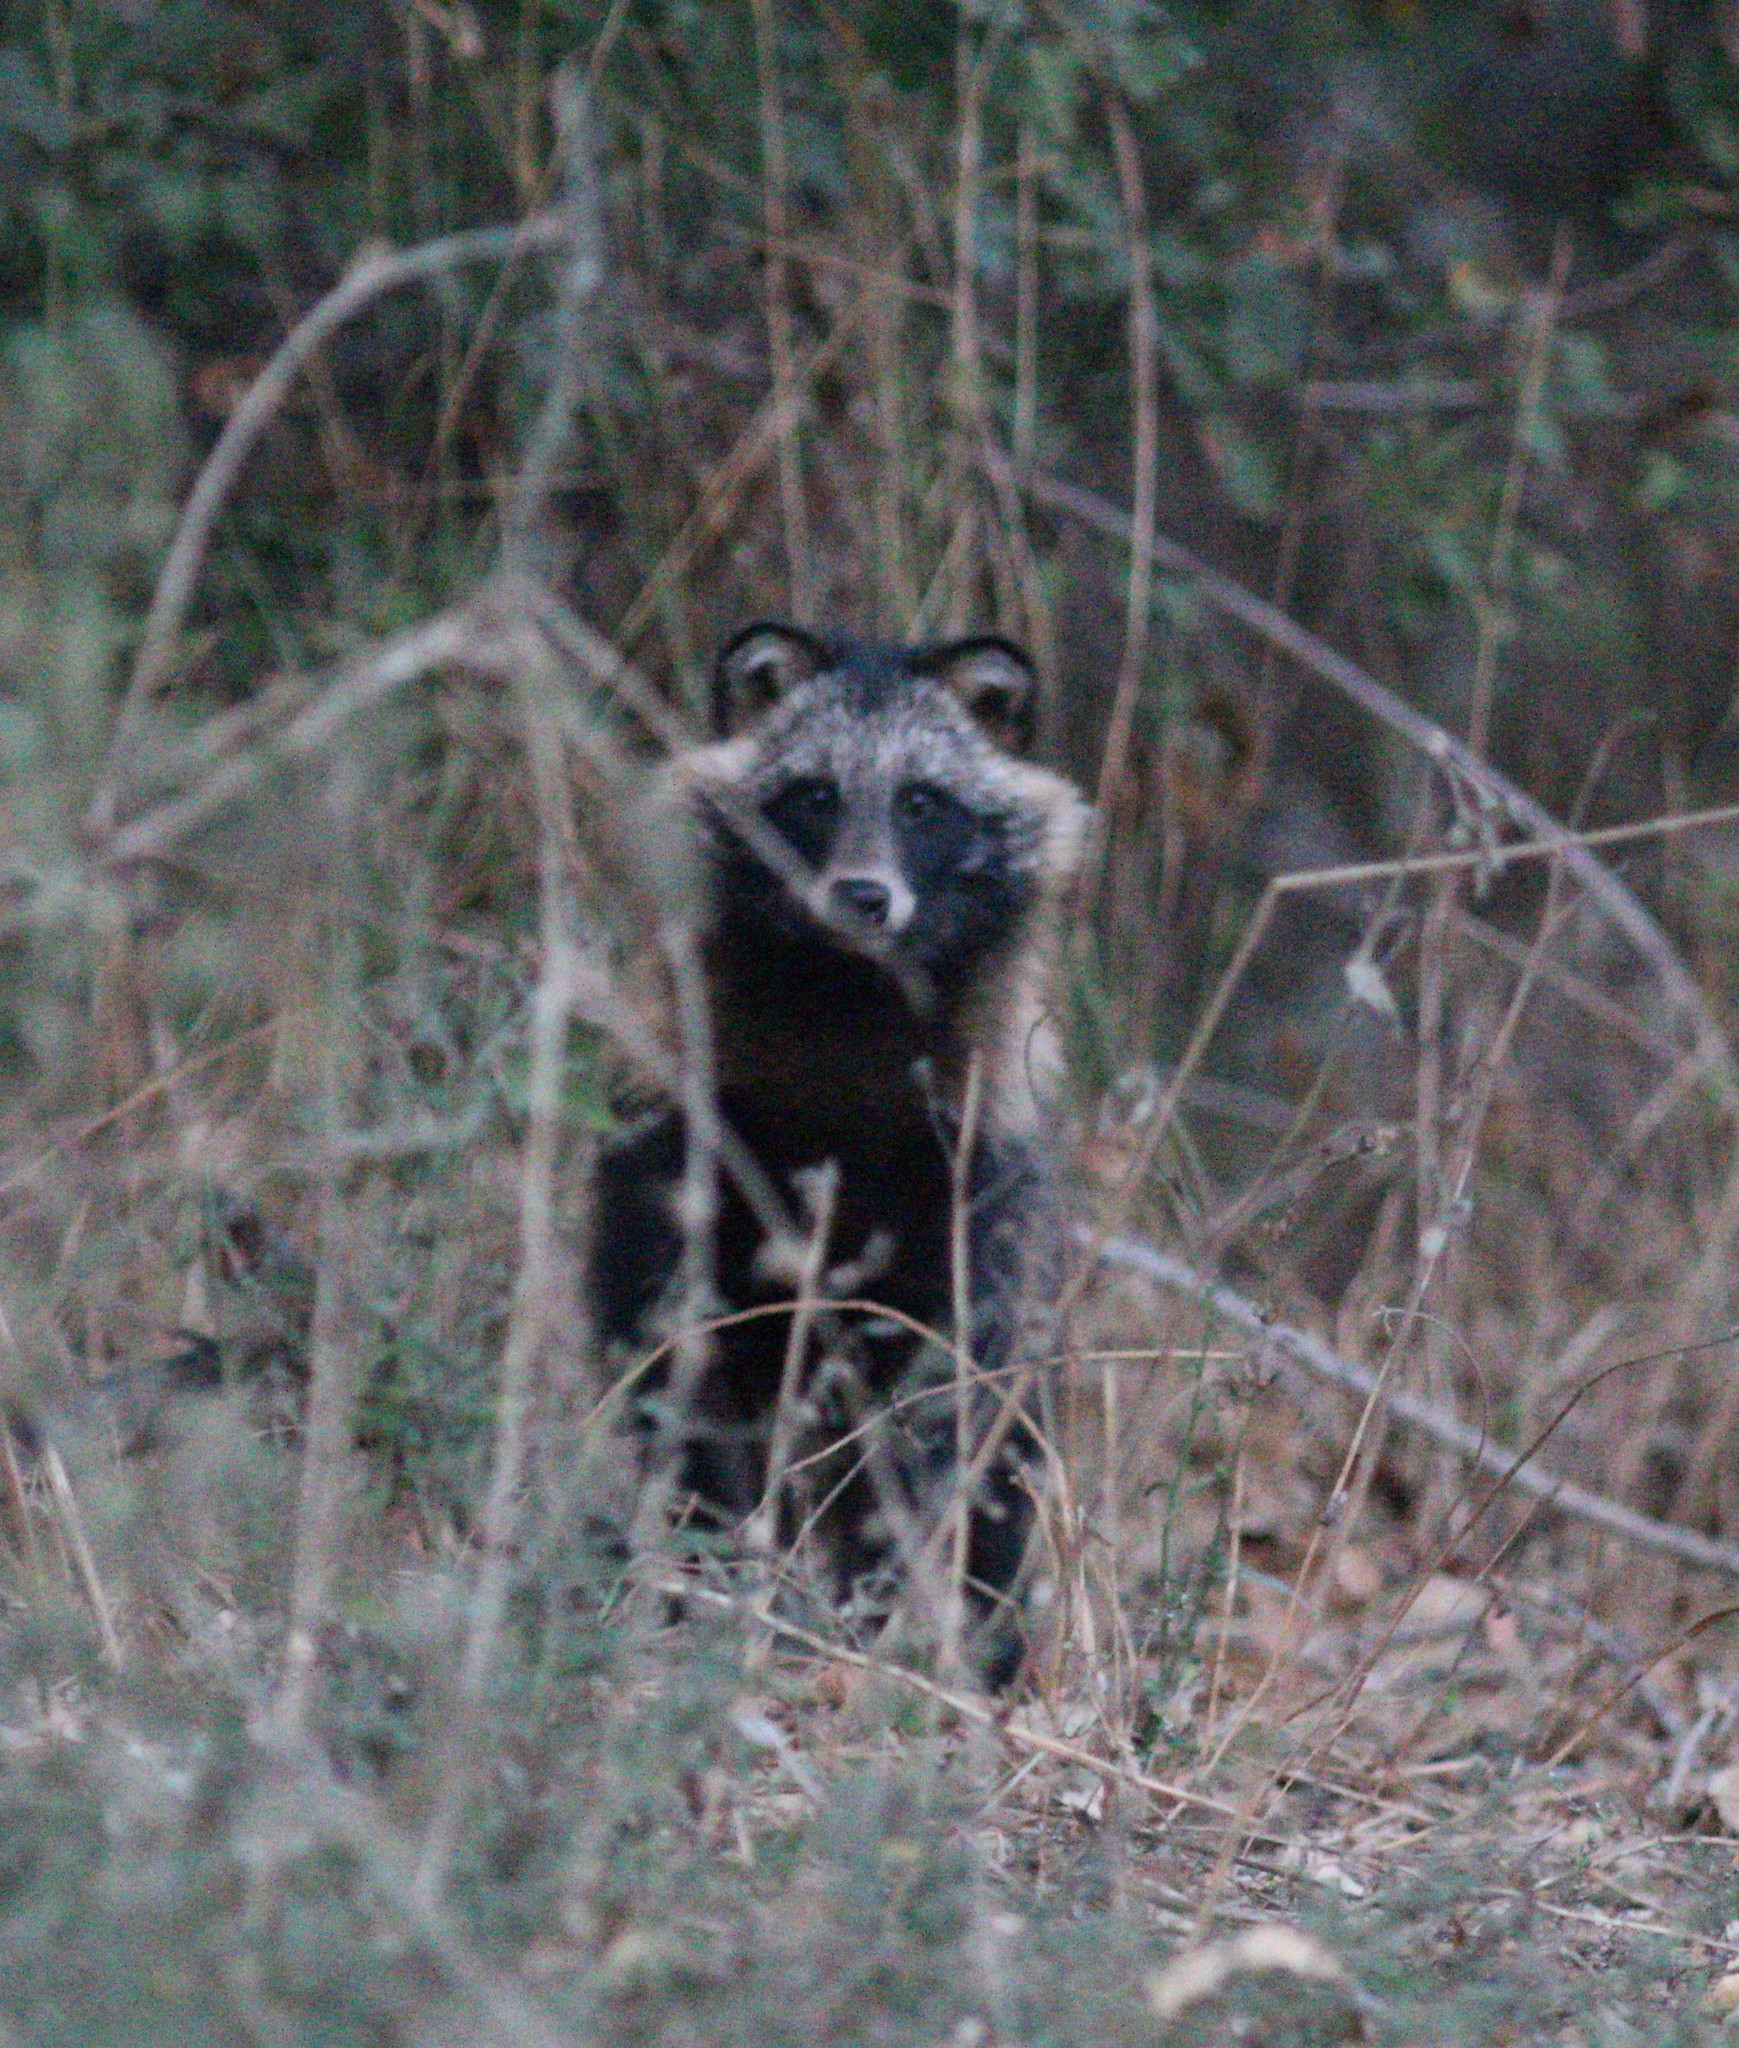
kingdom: Animalia
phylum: Chordata
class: Mammalia
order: Carnivora
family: Canidae
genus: Nyctereutes
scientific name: Nyctereutes procyonoides
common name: Raccoon dog
